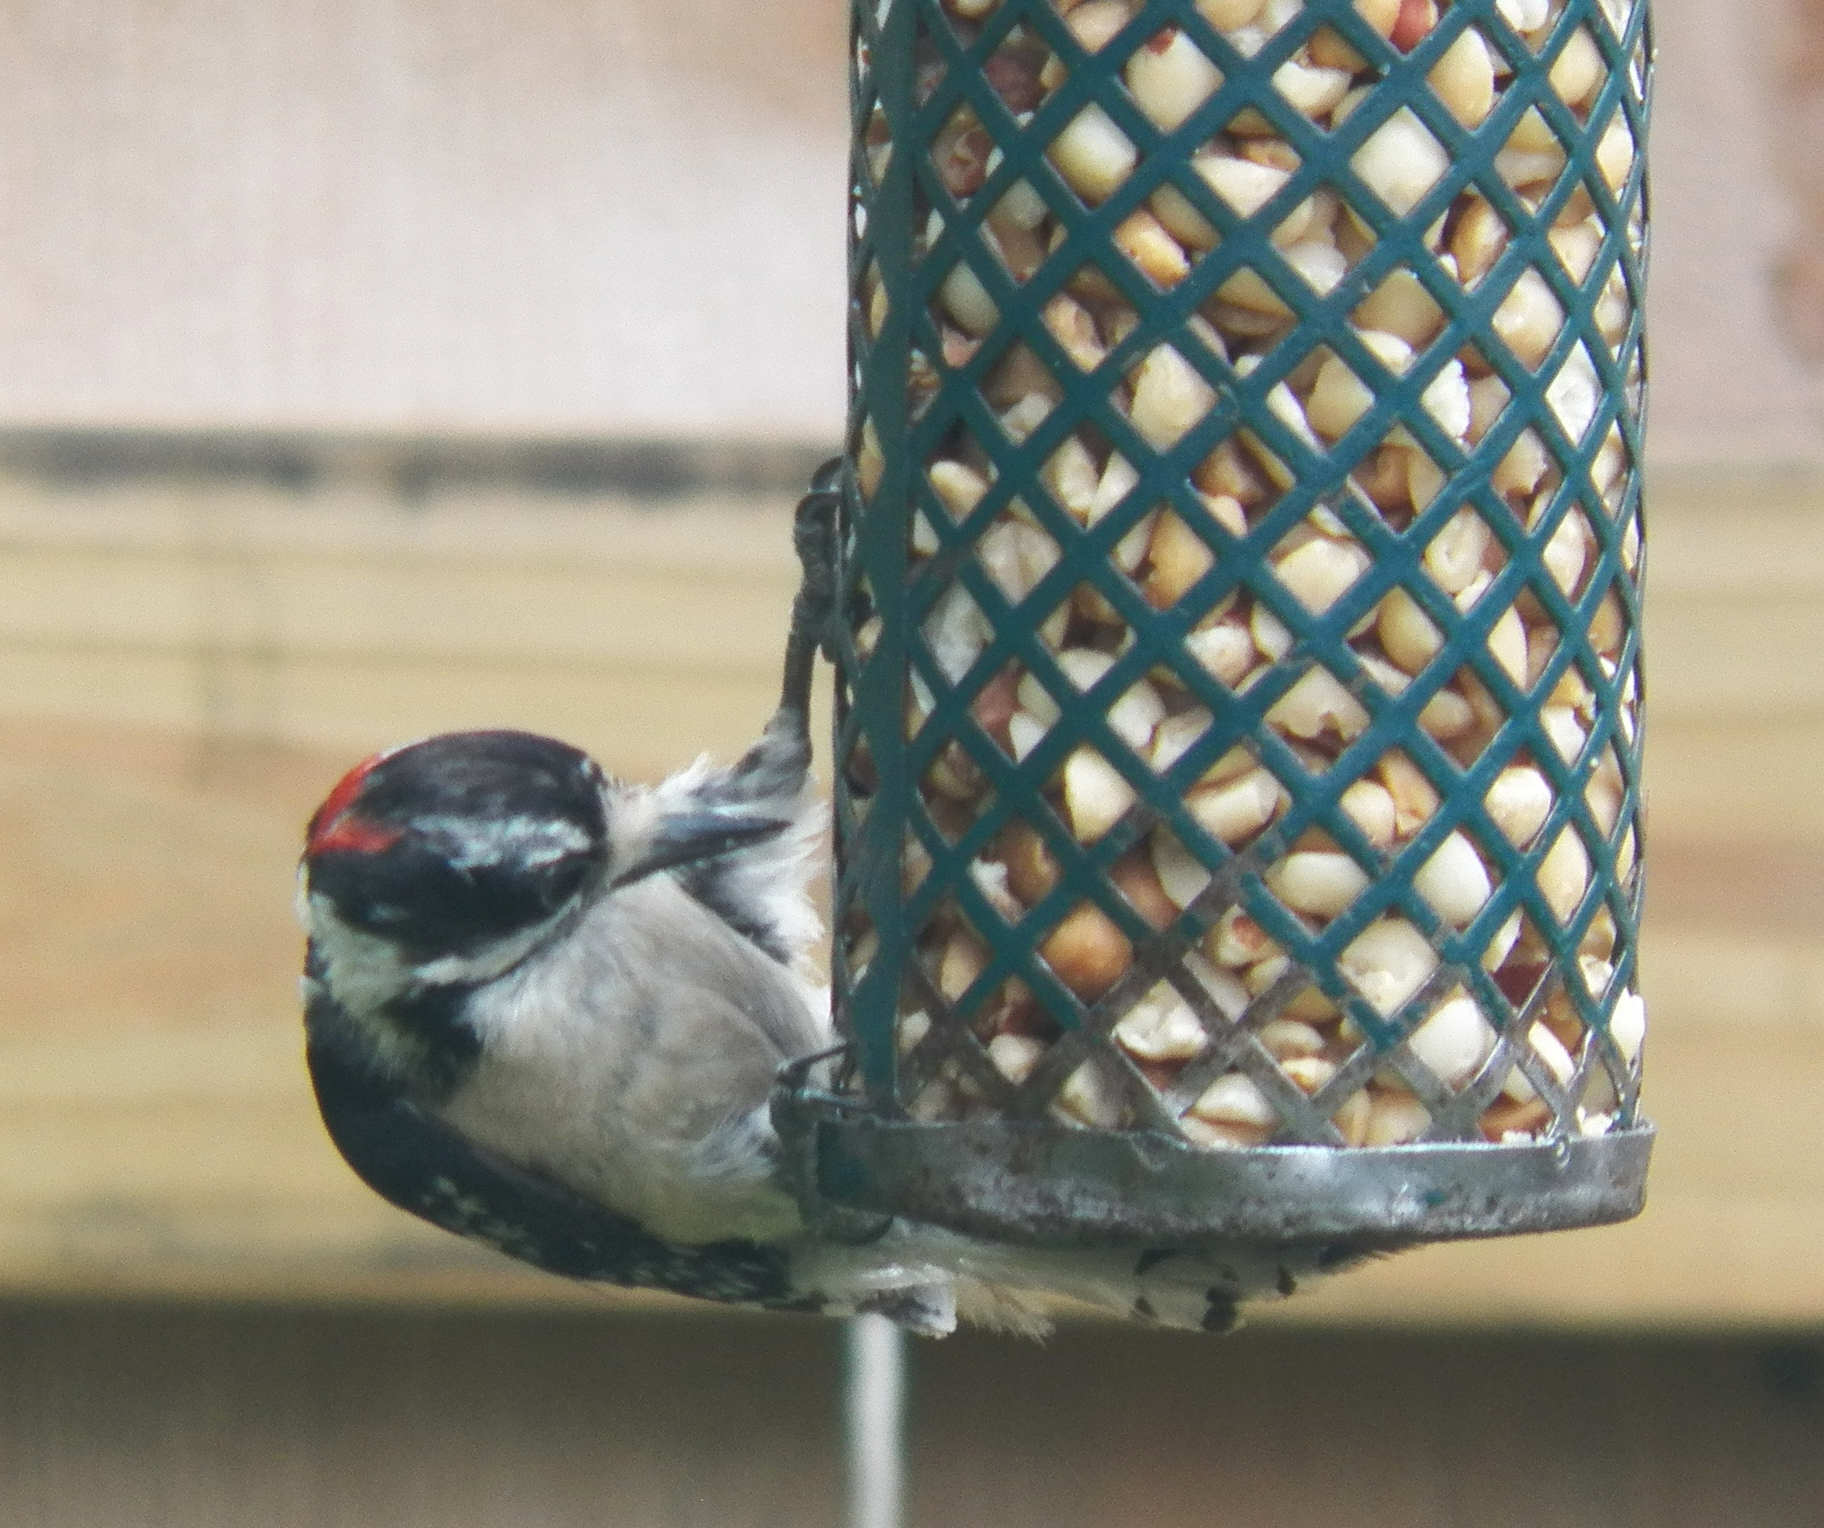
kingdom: Animalia
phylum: Chordata
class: Aves
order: Piciformes
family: Picidae
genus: Dryobates
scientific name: Dryobates pubescens
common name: Downy woodpecker
